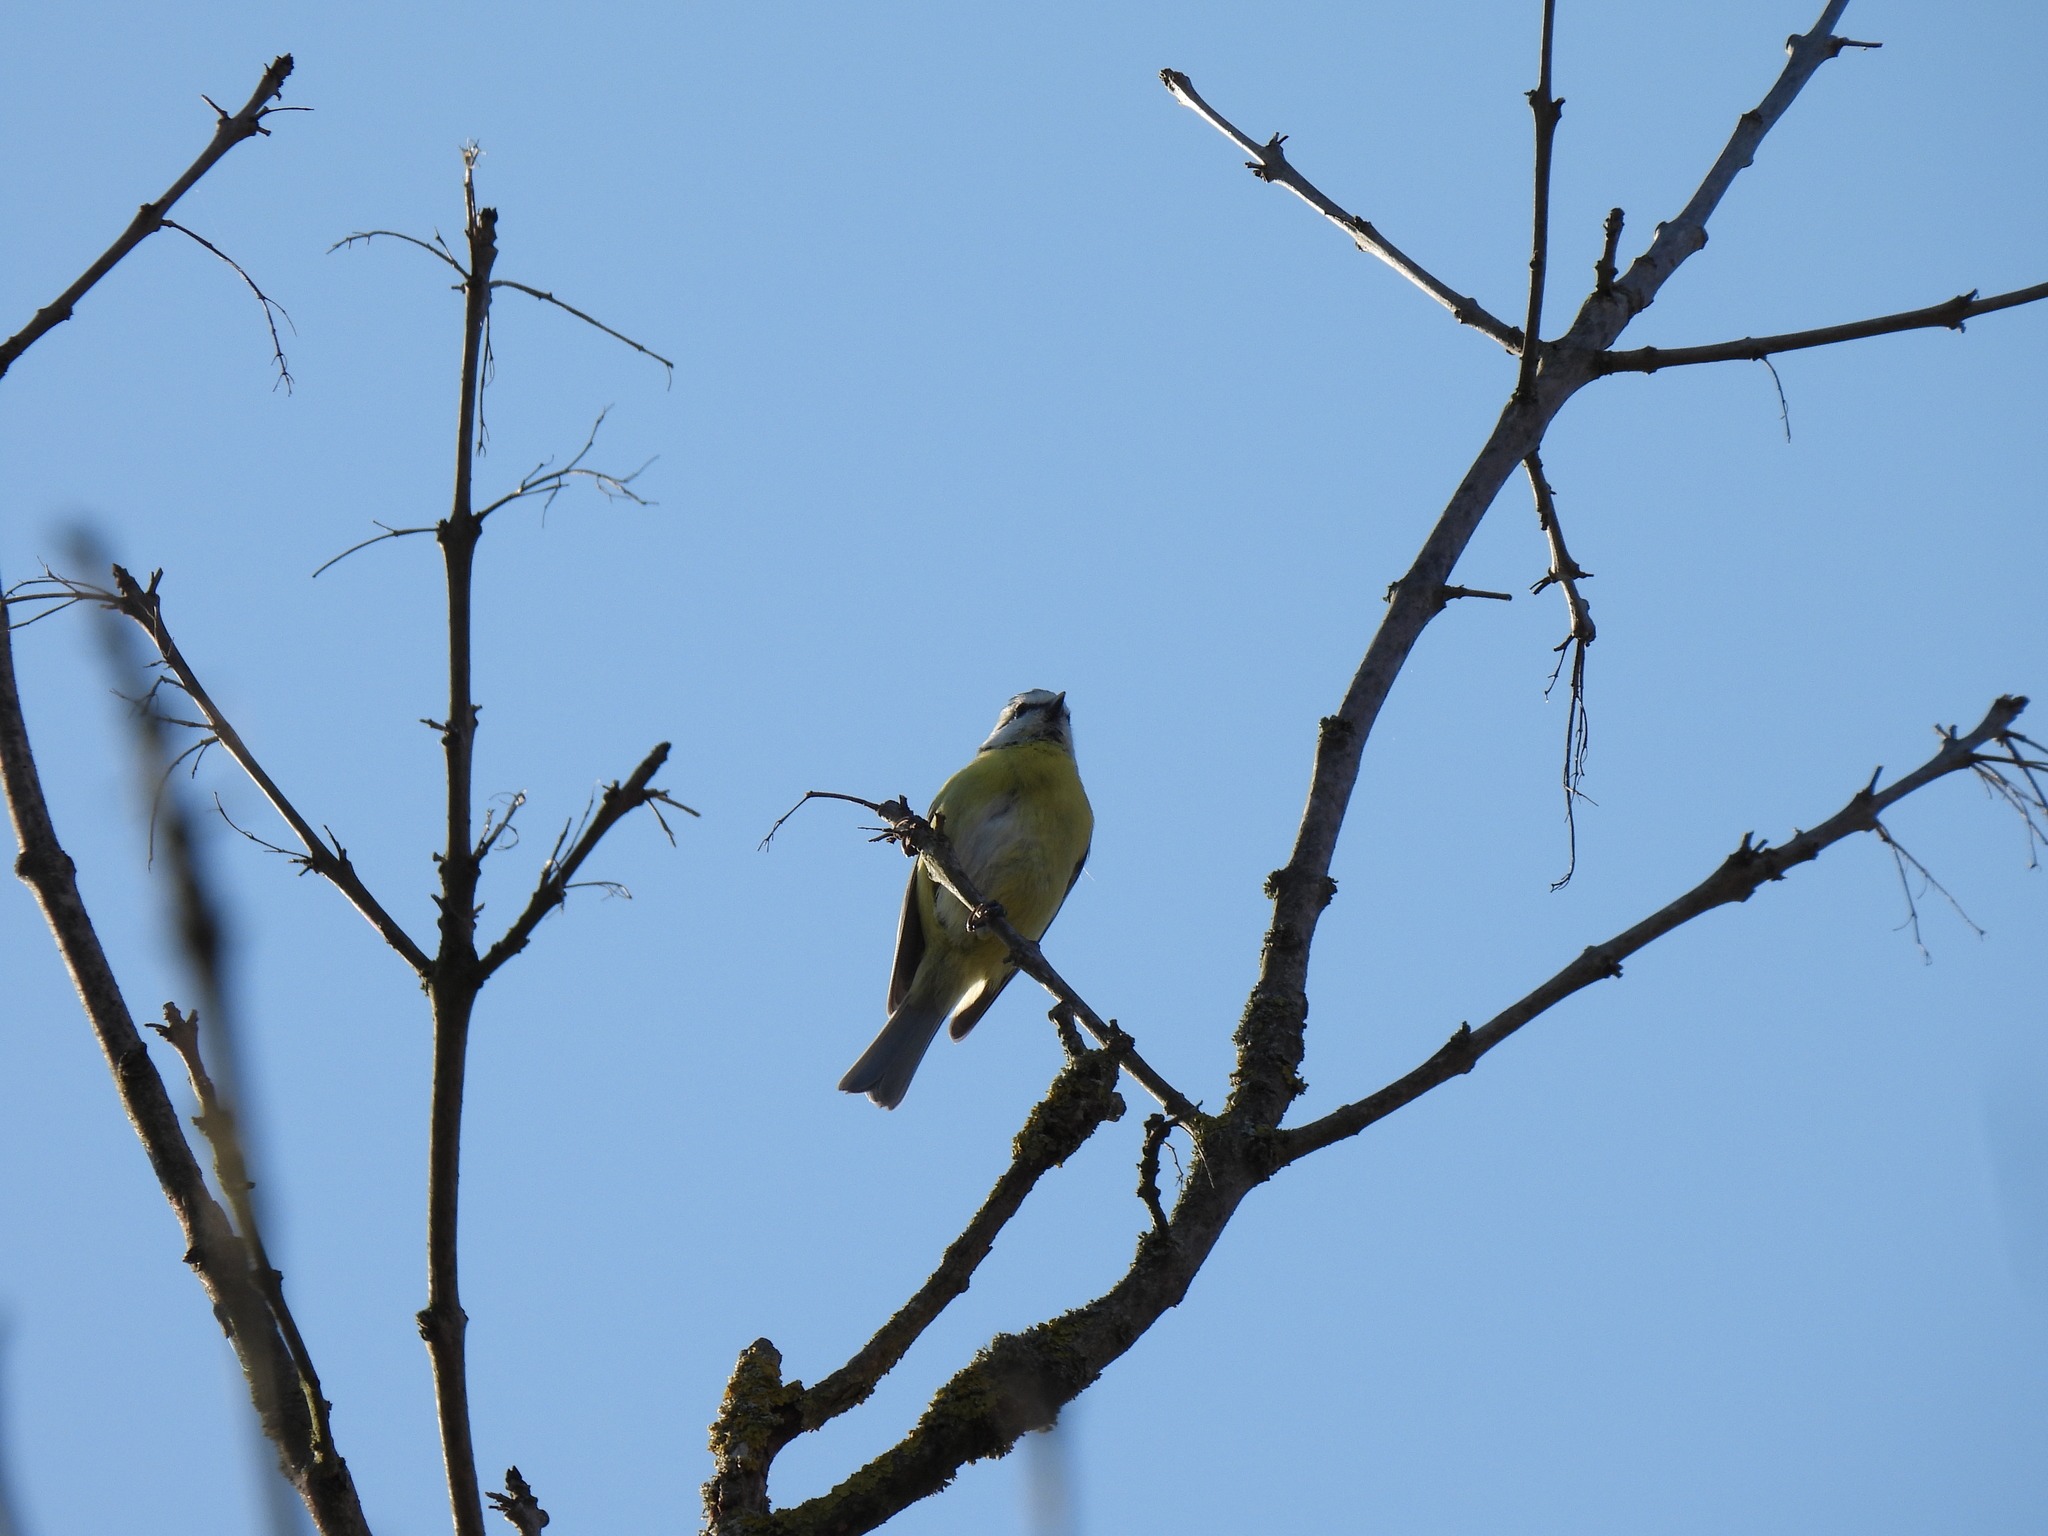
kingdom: Animalia
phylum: Chordata
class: Aves
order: Passeriformes
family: Paridae
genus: Cyanistes
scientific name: Cyanistes caeruleus
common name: Eurasian blue tit
